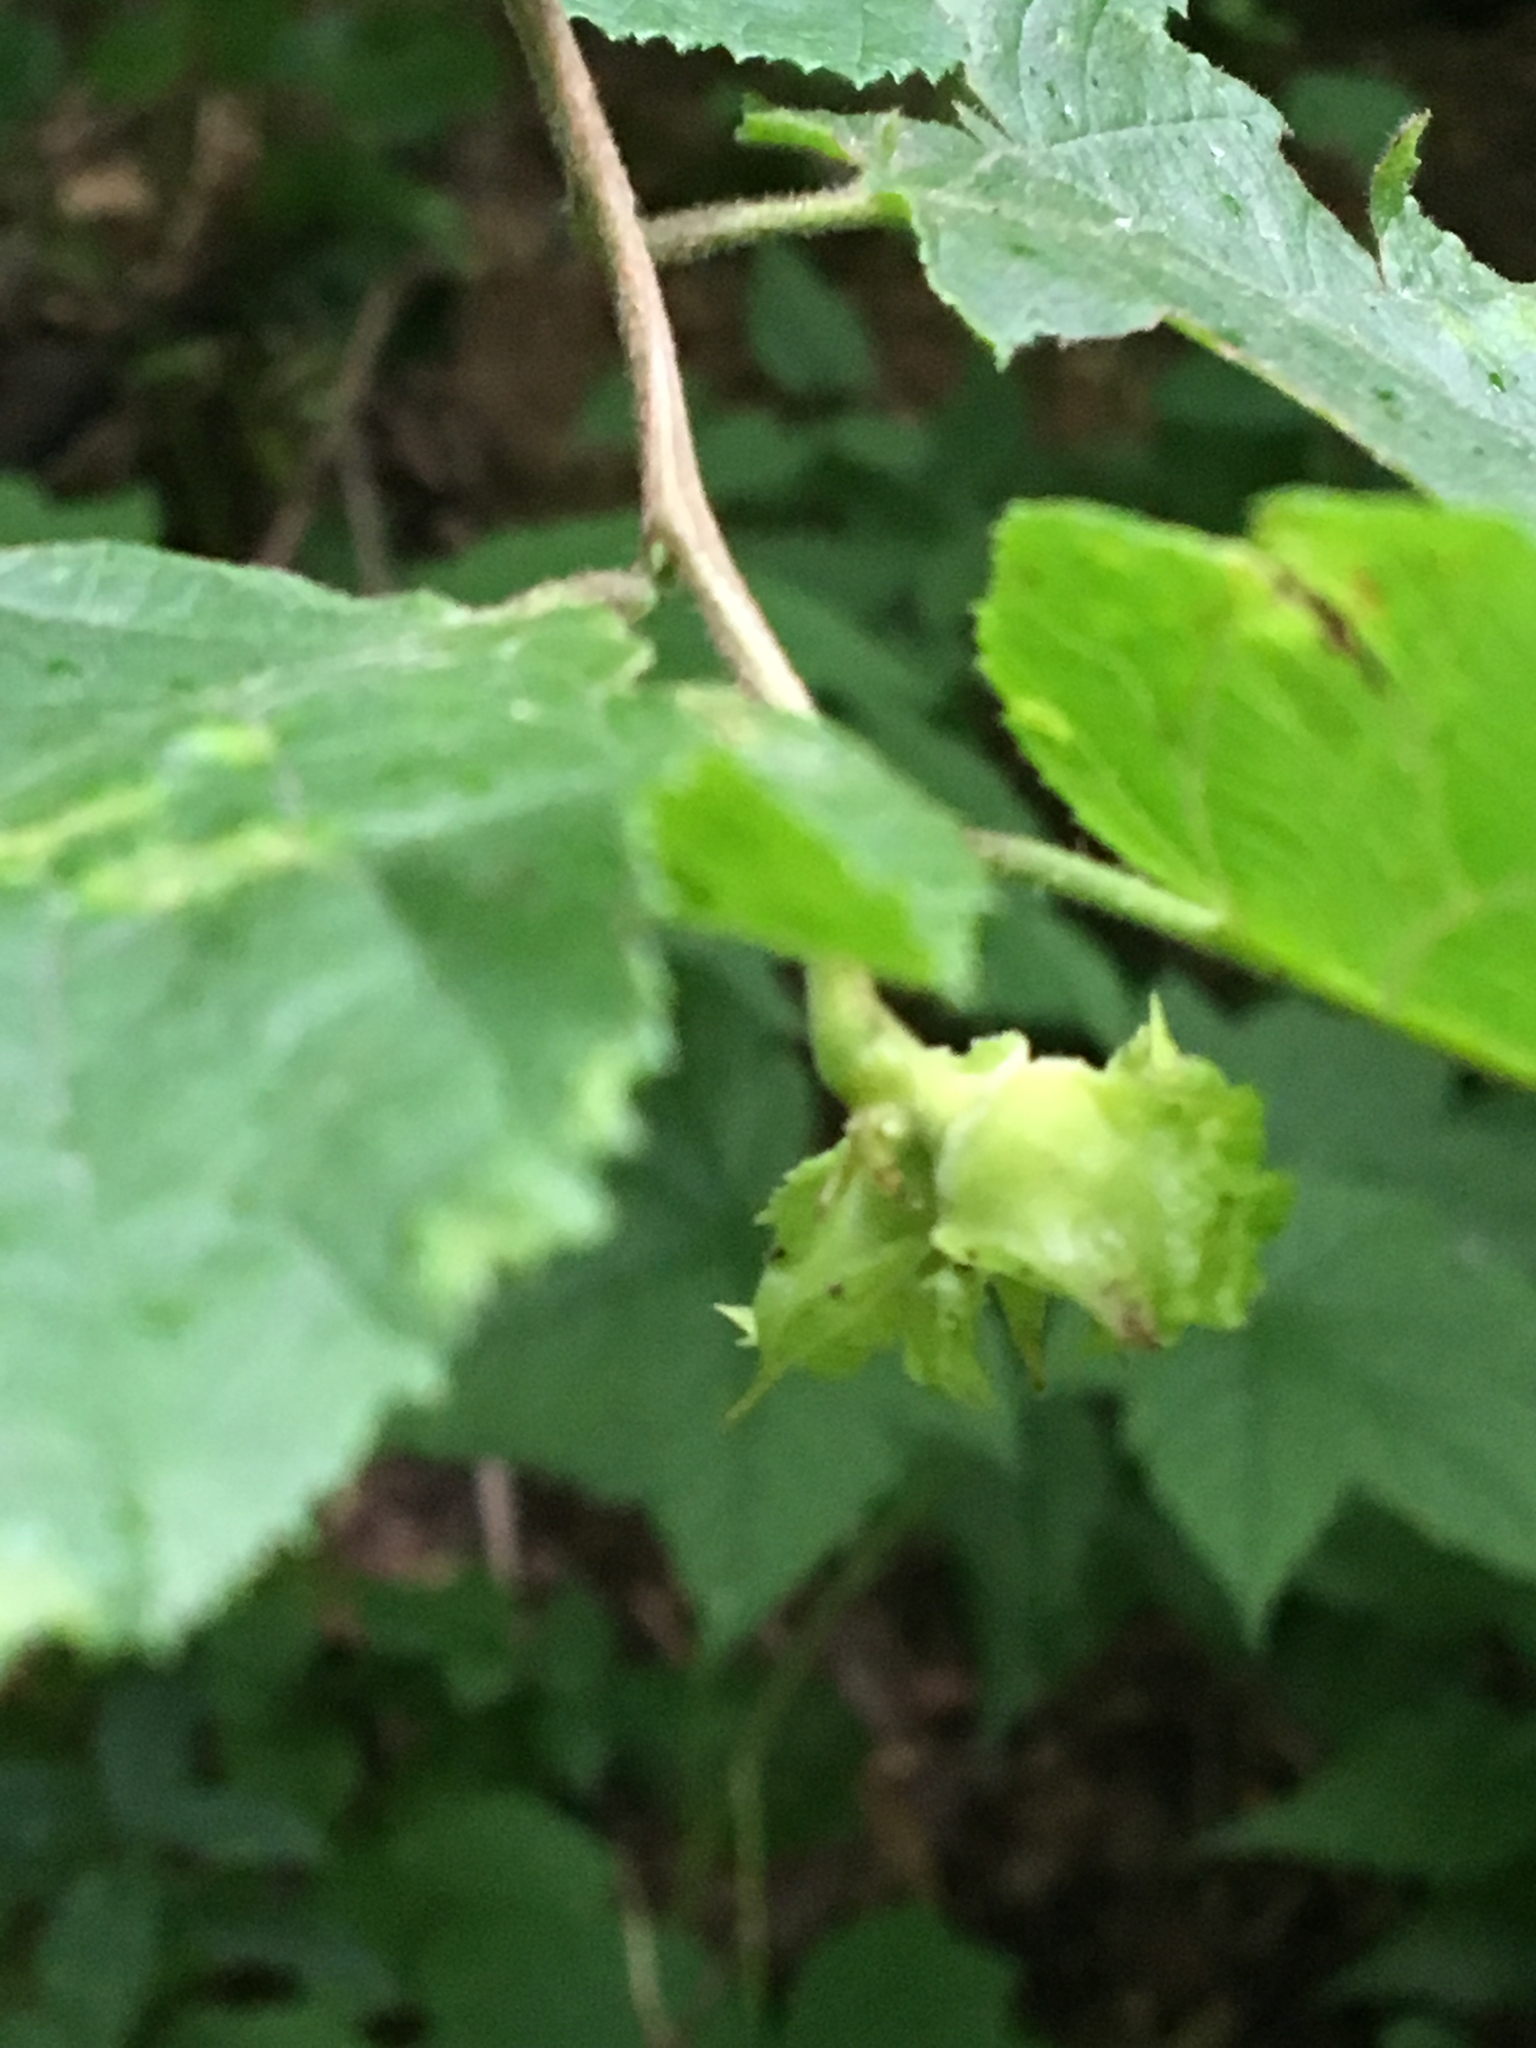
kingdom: Plantae
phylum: Tracheophyta
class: Magnoliopsida
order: Fagales
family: Betulaceae
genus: Corylus
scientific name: Corylus americana
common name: American hazel
